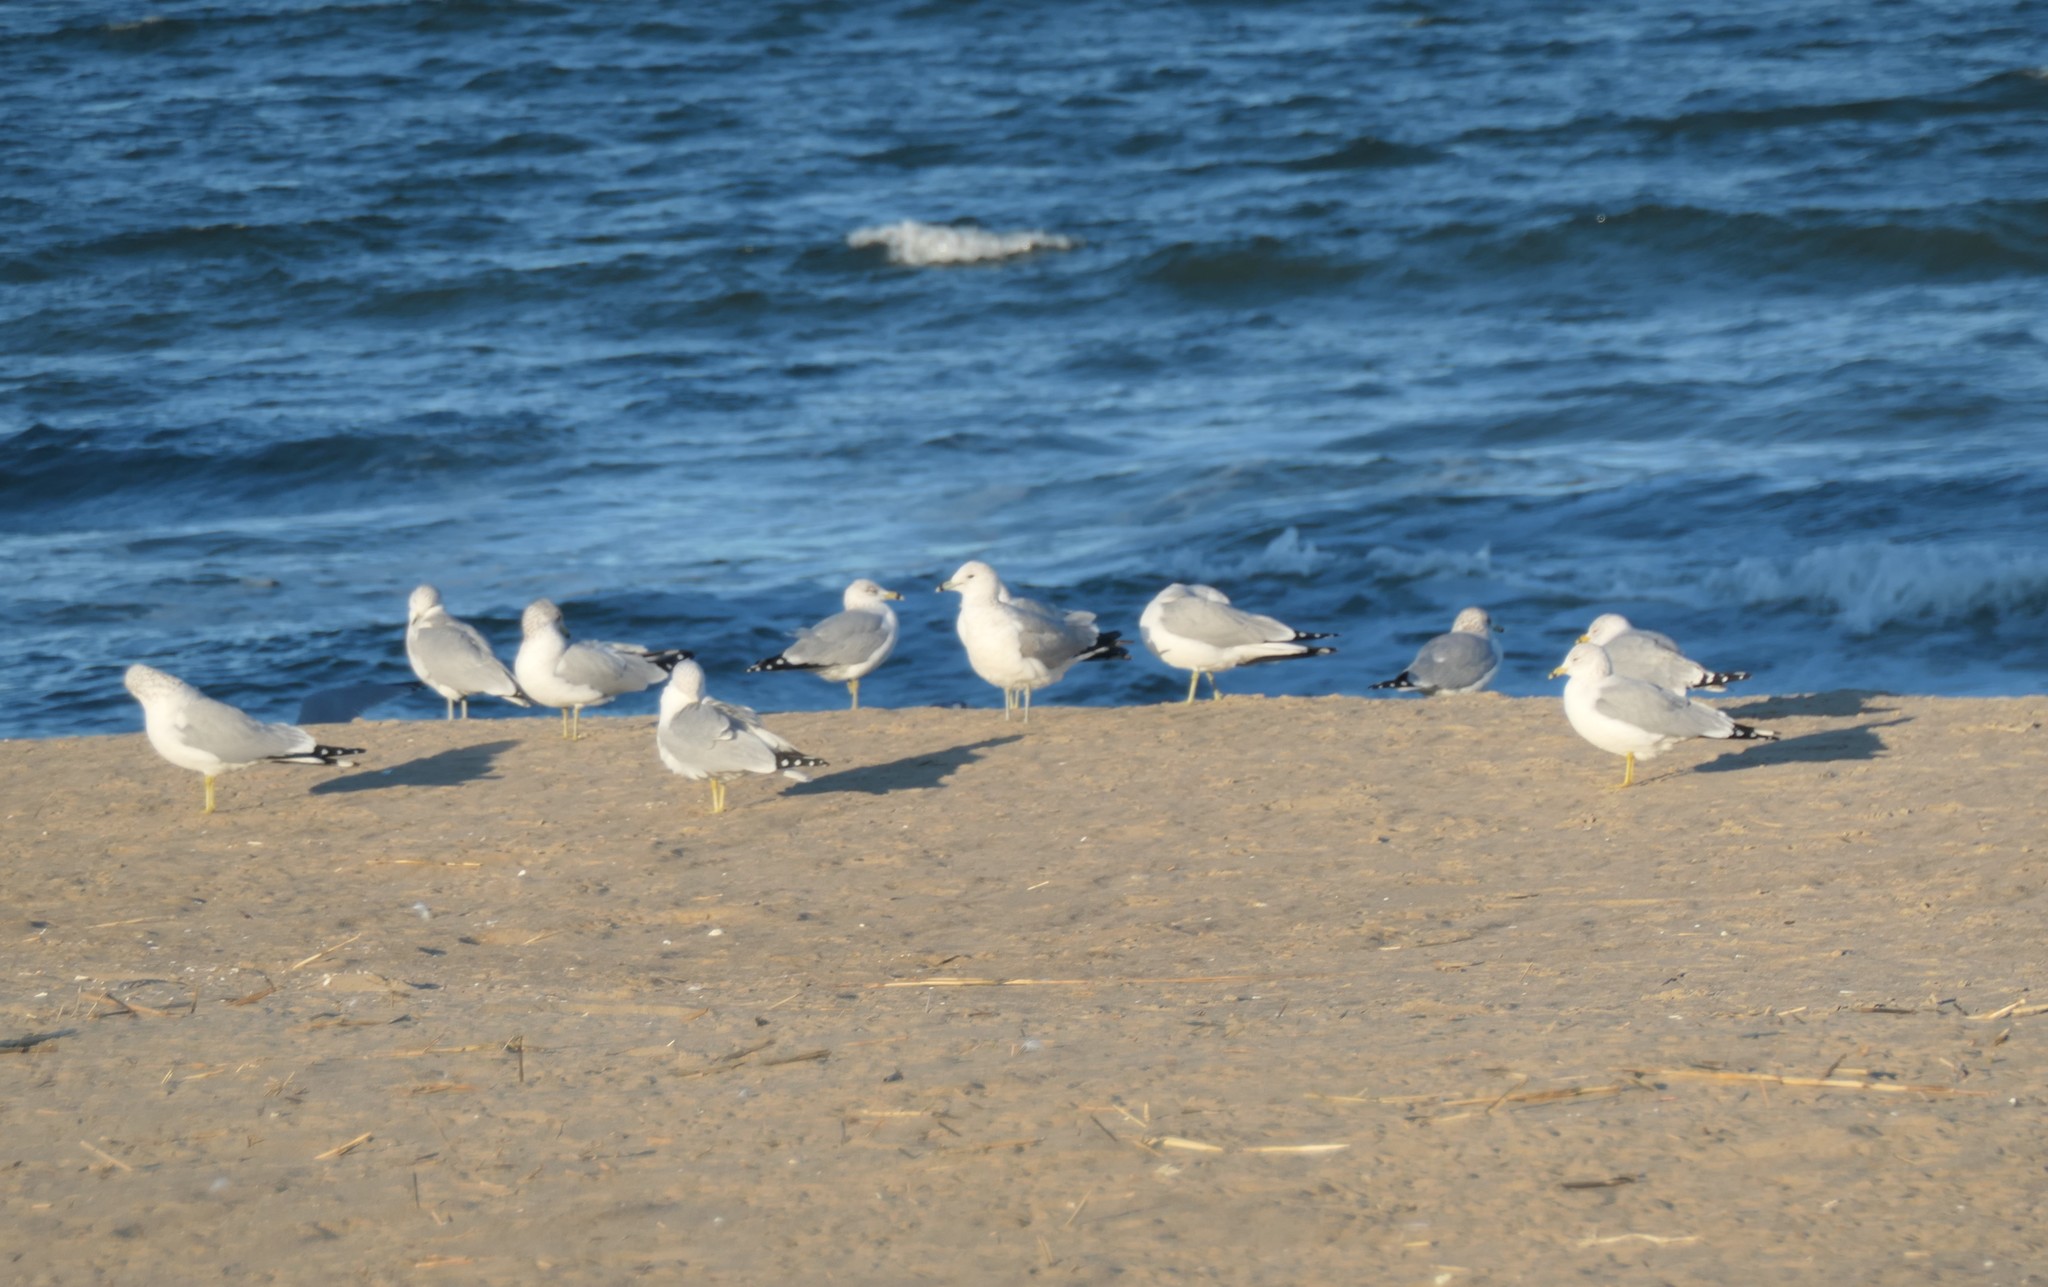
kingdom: Animalia
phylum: Chordata
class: Aves
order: Charadriiformes
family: Laridae
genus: Larus
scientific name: Larus delawarensis
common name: Ring-billed gull
